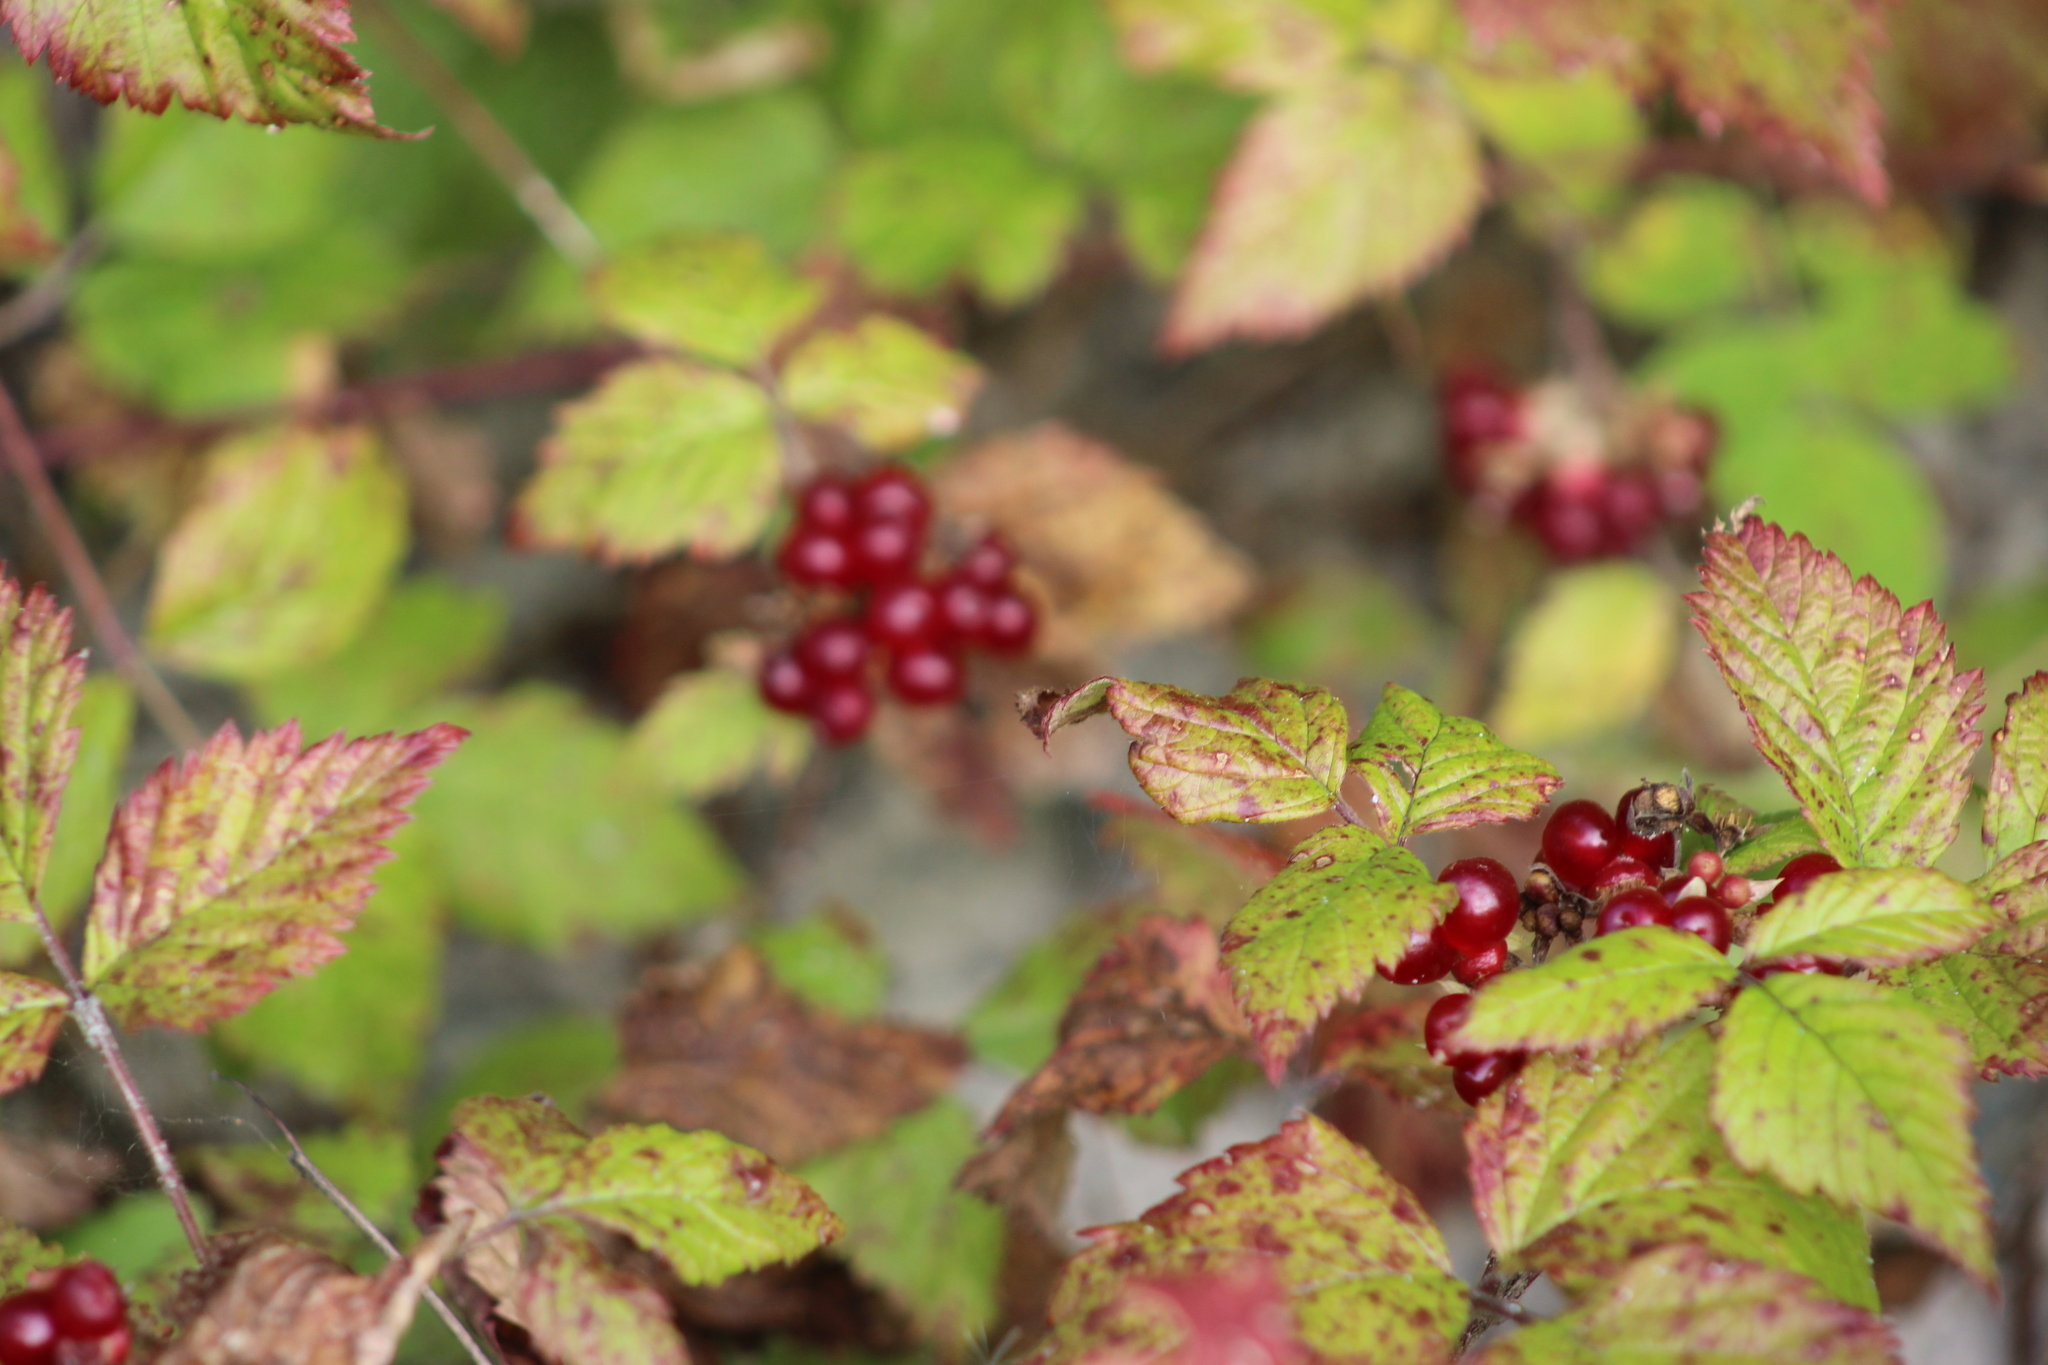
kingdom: Plantae
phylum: Tracheophyta
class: Magnoliopsida
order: Rosales
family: Rosaceae
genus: Rubus
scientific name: Rubus saxatilis
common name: Stone bramble
